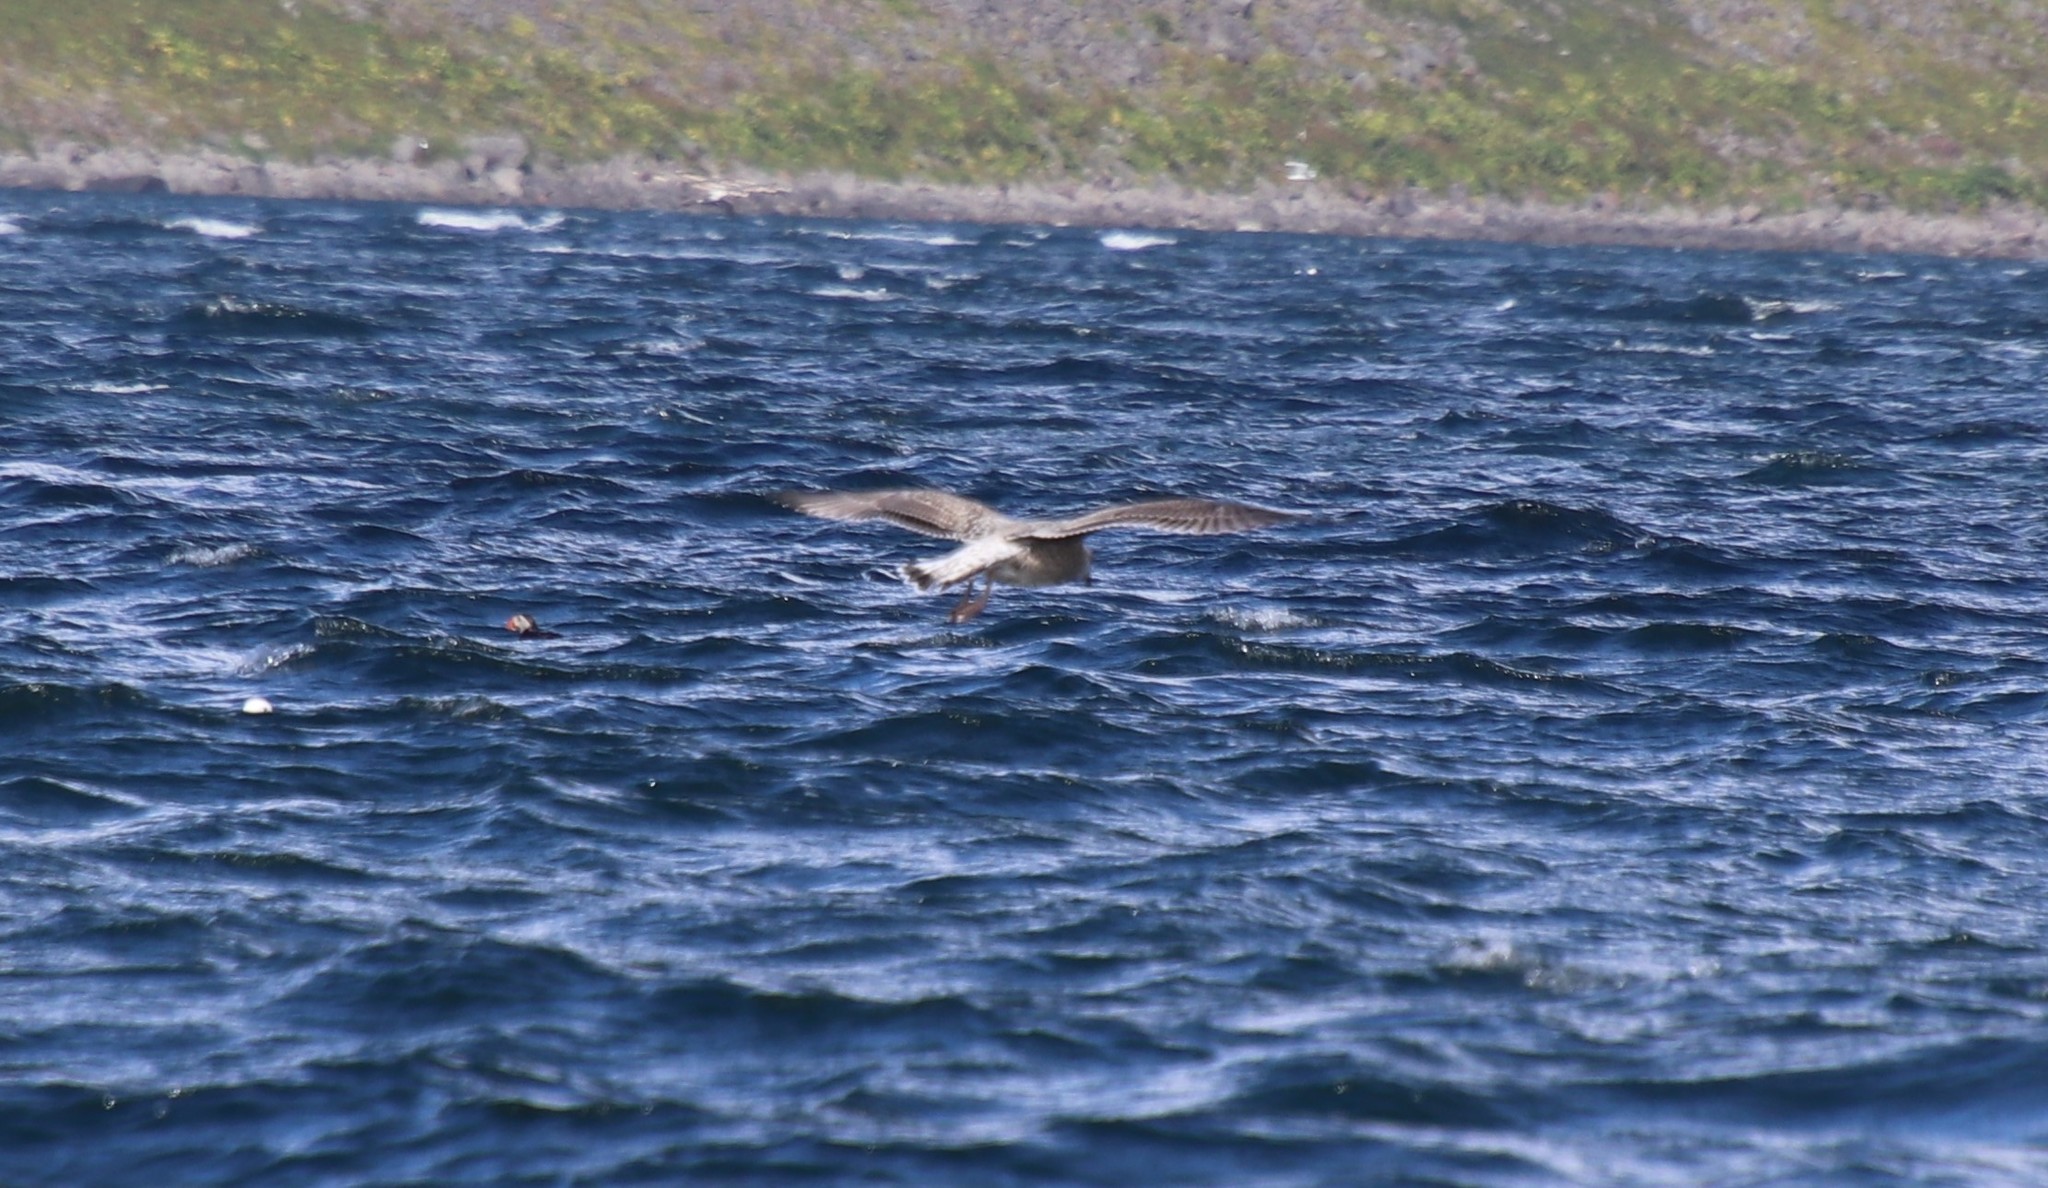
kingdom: Animalia
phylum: Chordata
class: Aves
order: Charadriiformes
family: Laridae
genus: Larus
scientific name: Larus marinus
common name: Great black-backed gull
